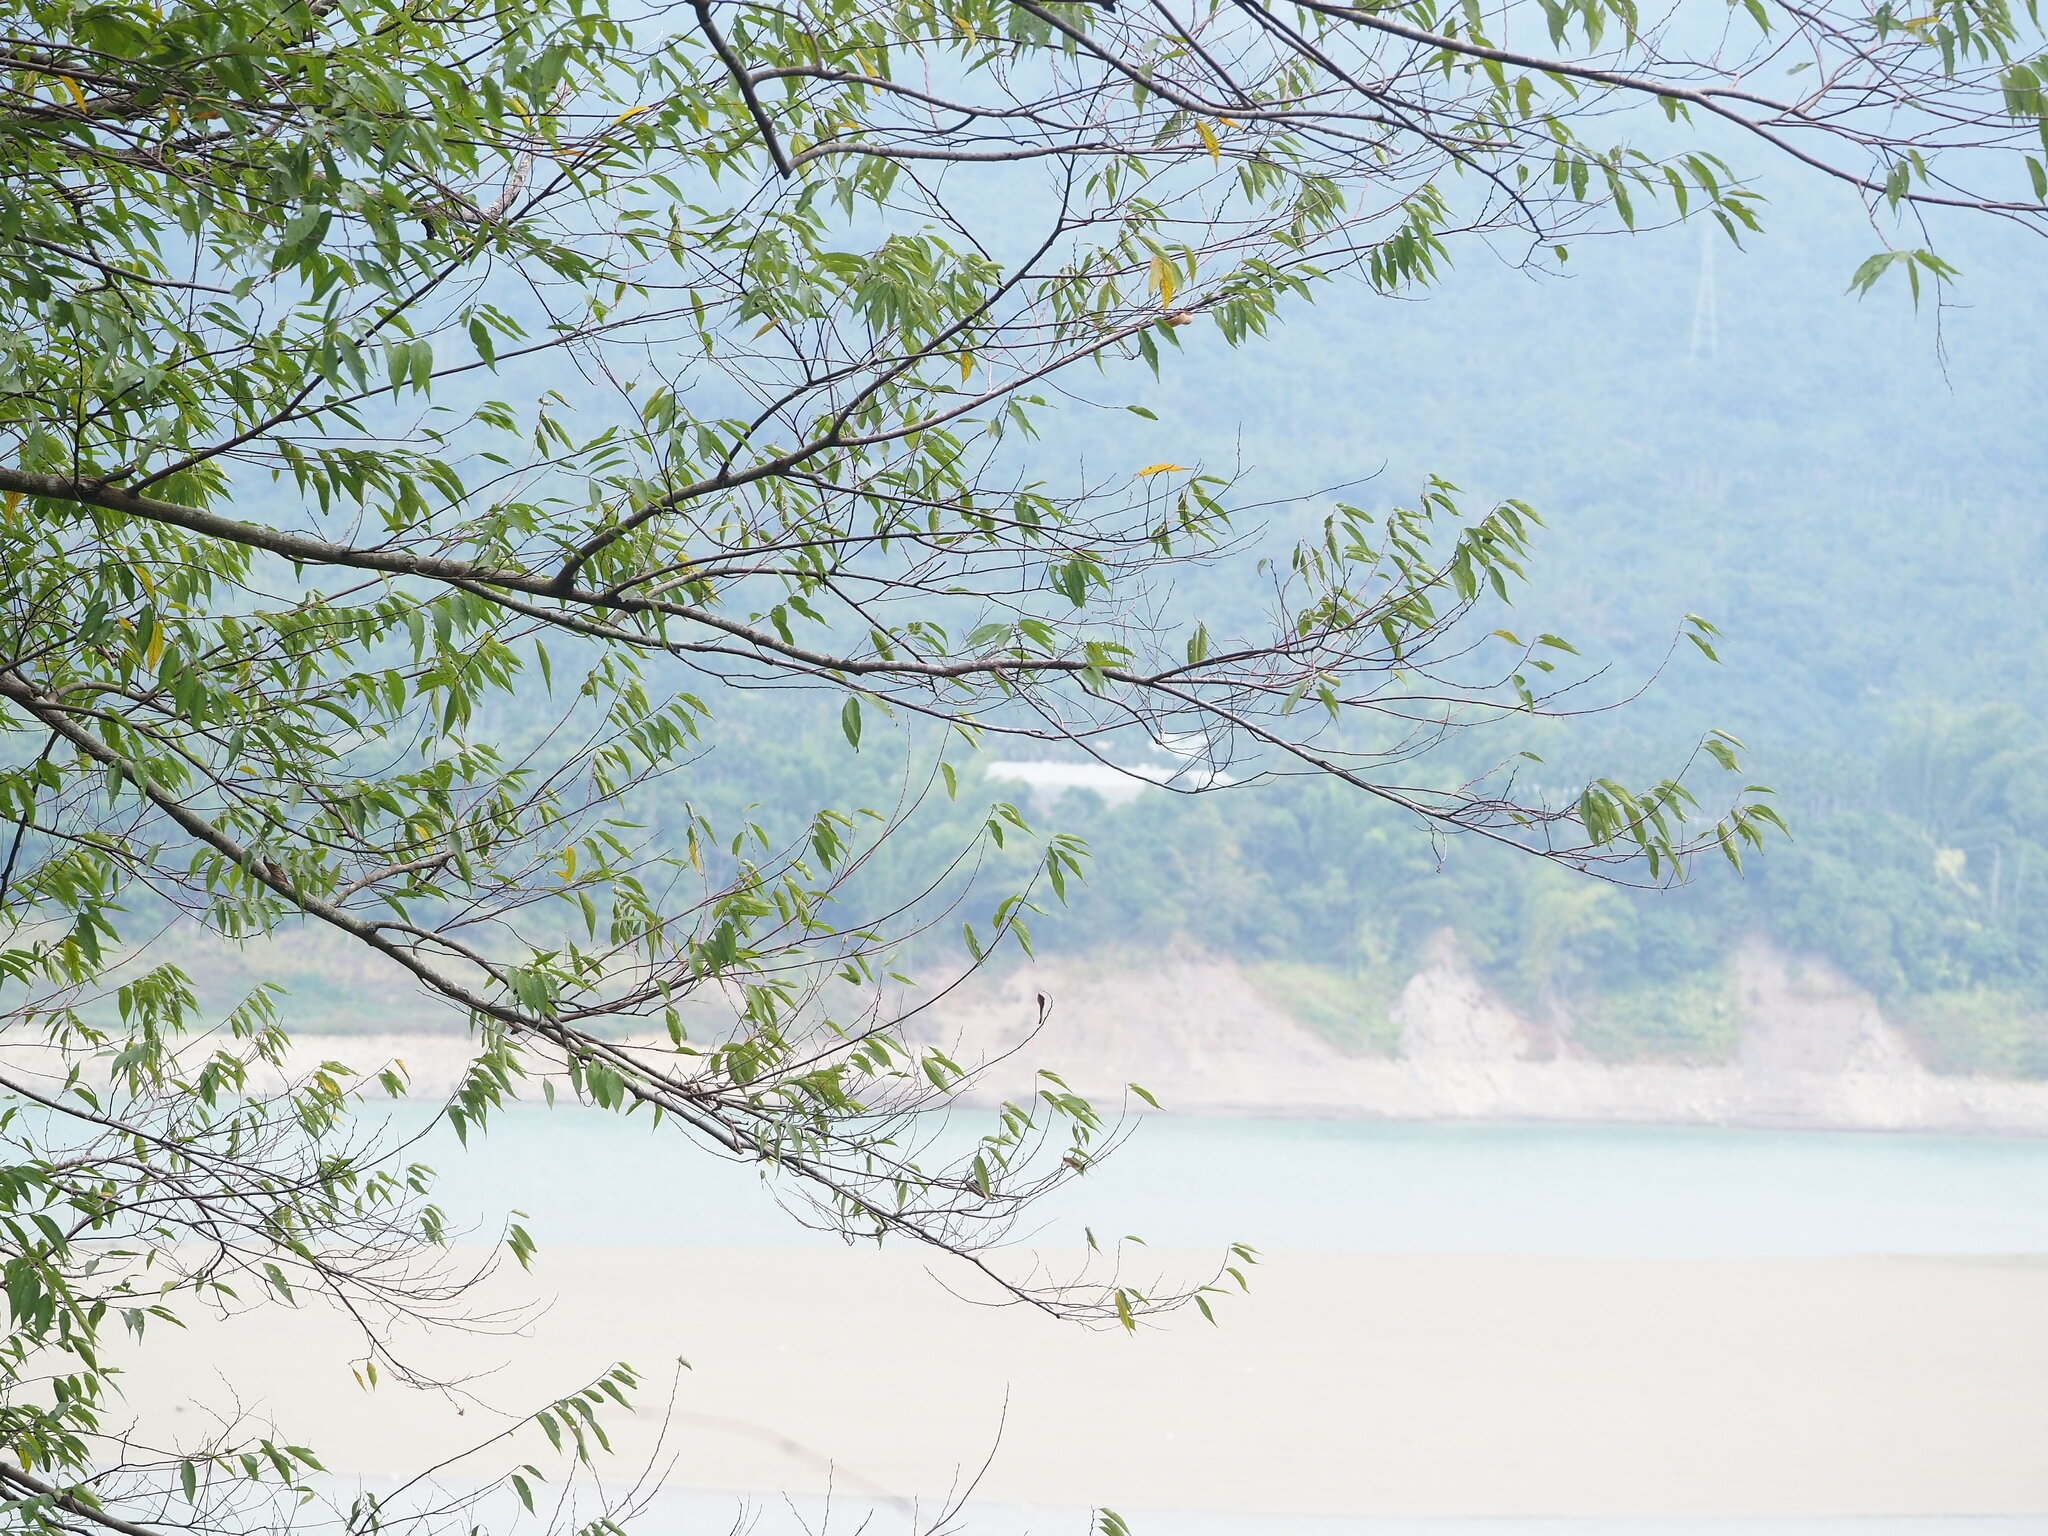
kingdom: Plantae
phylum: Tracheophyta
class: Magnoliopsida
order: Rosales
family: Cannabaceae
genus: Trema
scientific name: Trema orientale
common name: Indian charcoal tree
